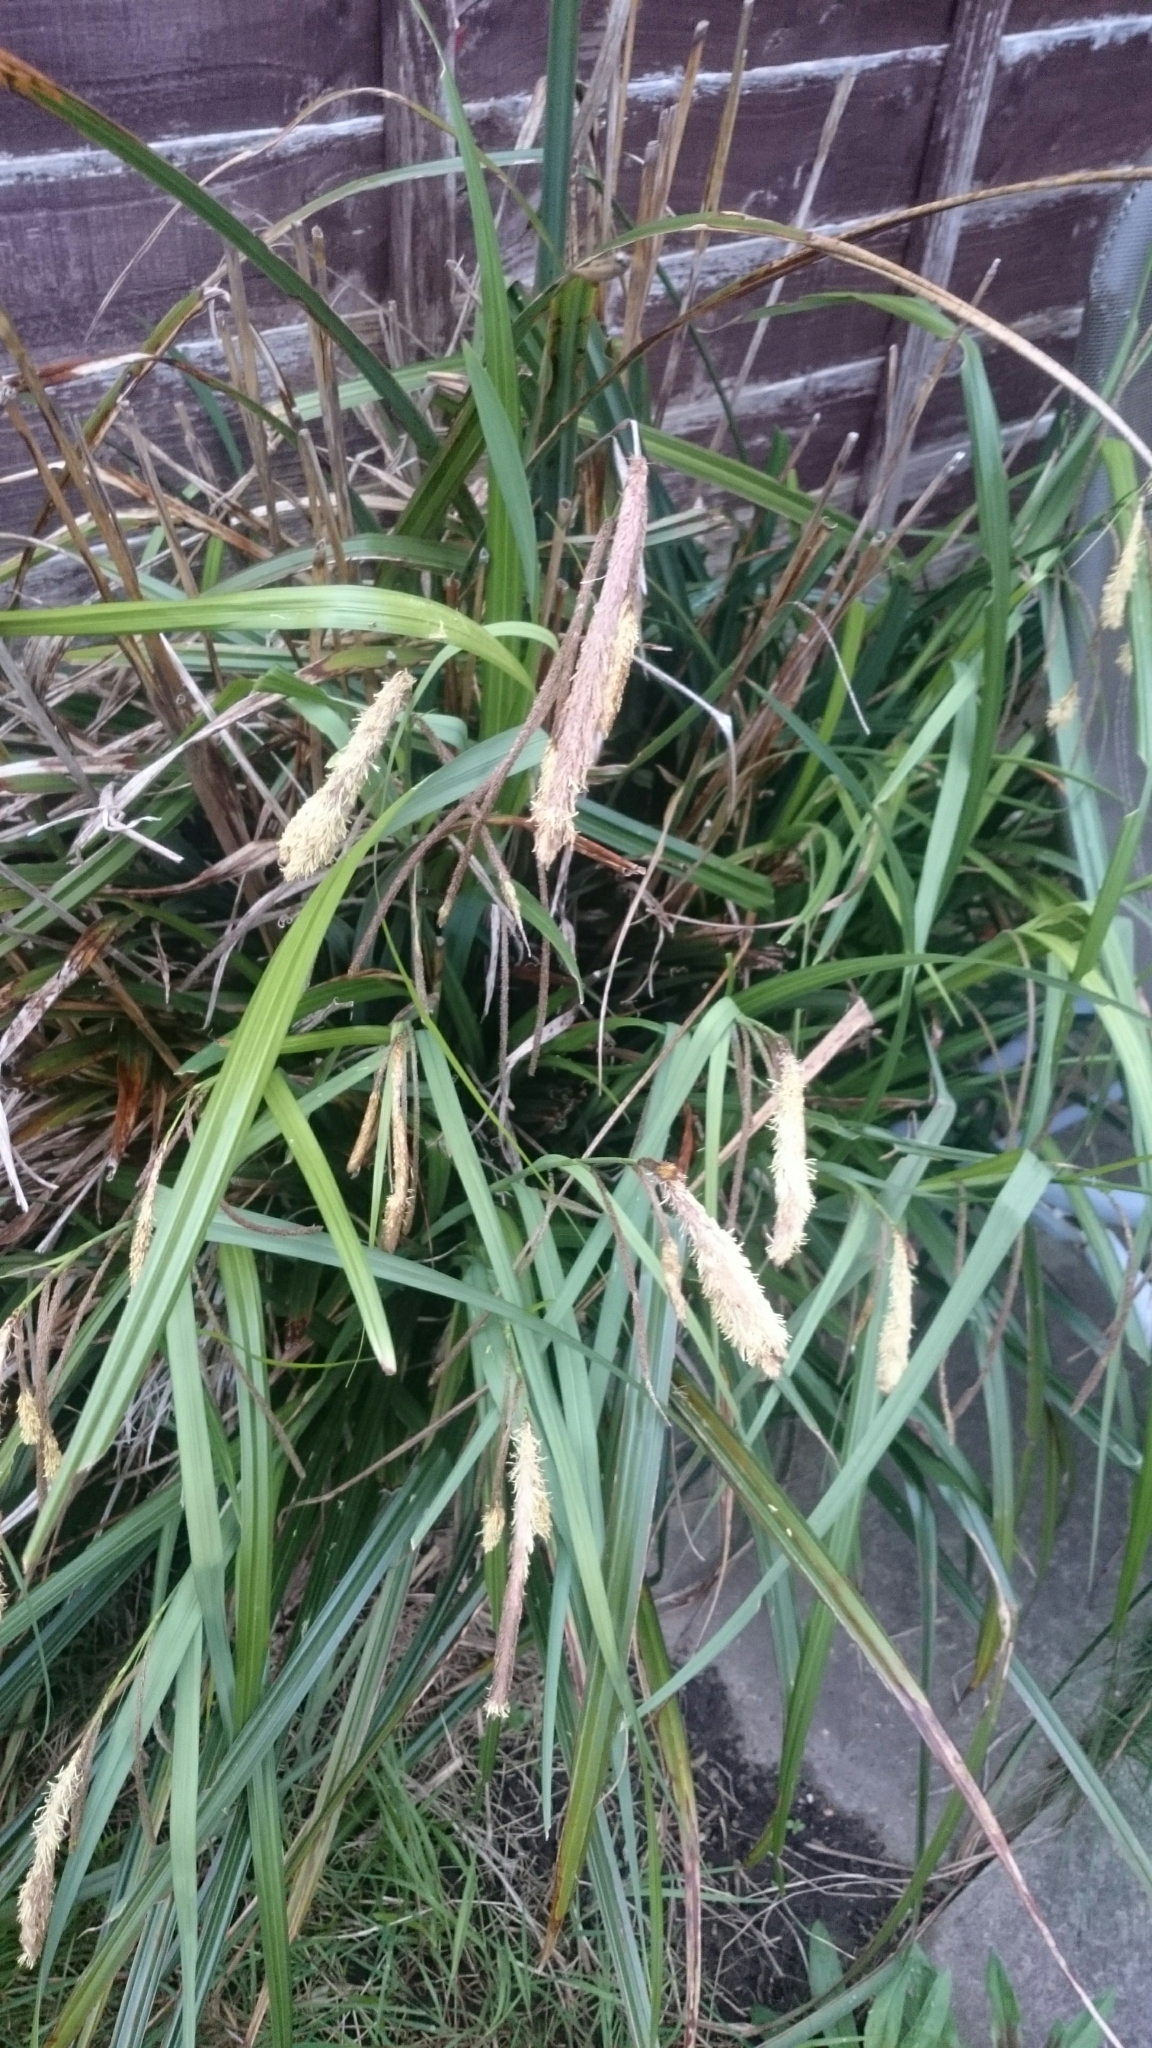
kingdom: Plantae
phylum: Tracheophyta
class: Liliopsida
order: Poales
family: Cyperaceae
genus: Carex
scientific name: Carex pendula
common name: Pendulous sedge
